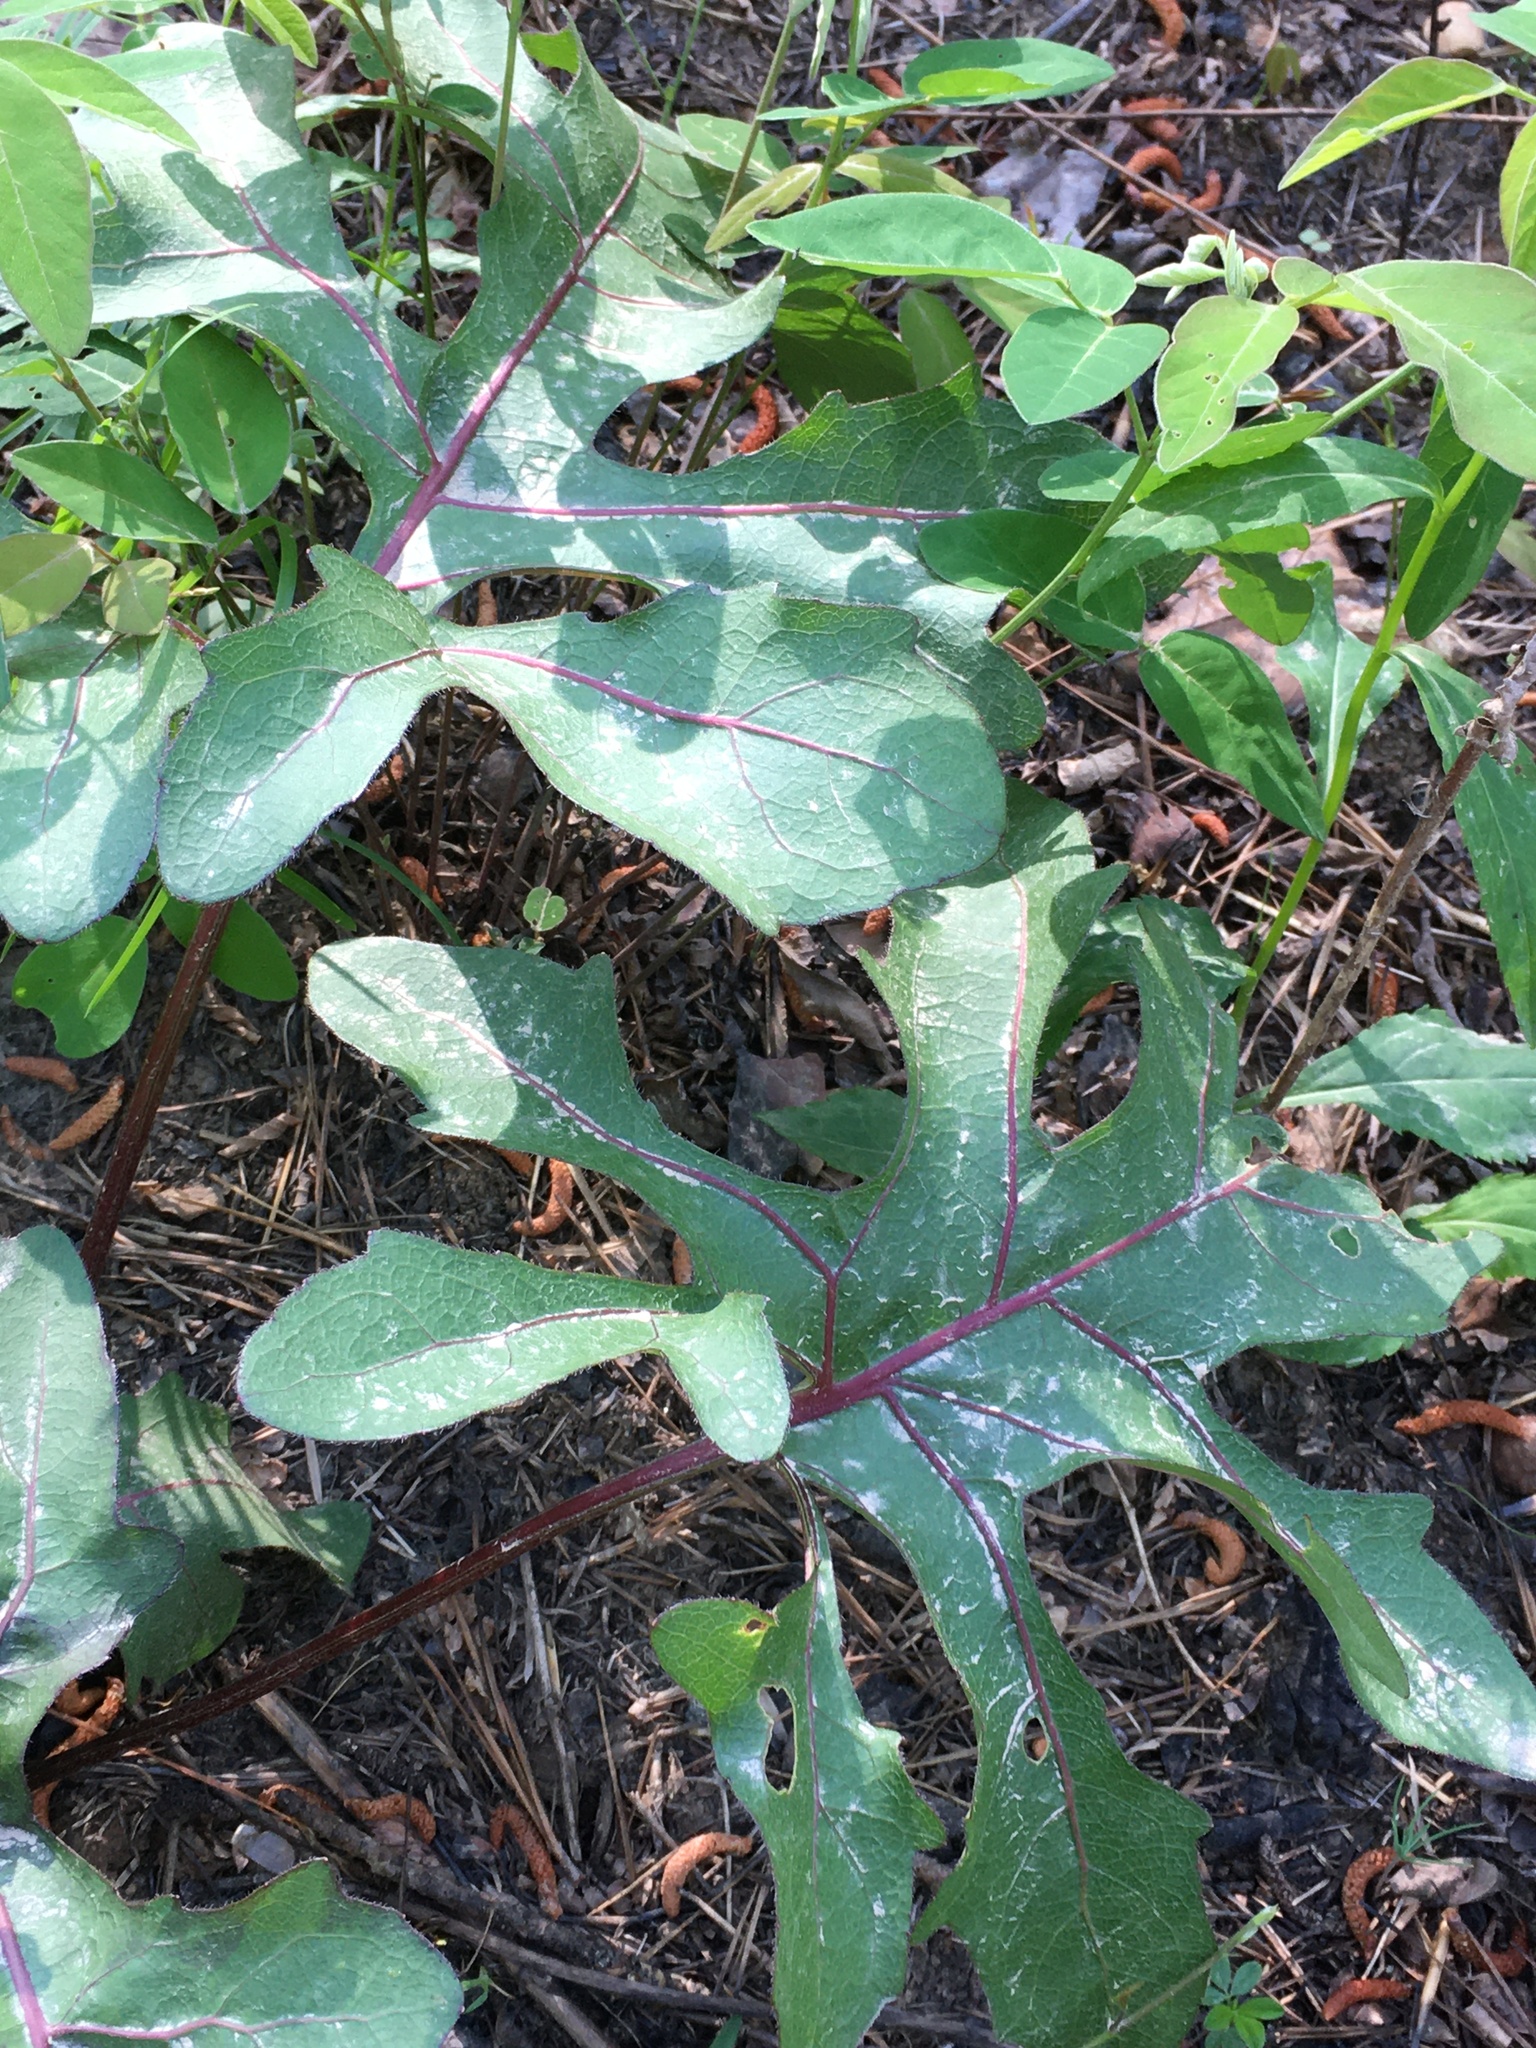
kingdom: Plantae
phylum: Tracheophyta
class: Magnoliopsida
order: Asterales
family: Asteraceae
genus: Silphium
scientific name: Silphium compositum
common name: Lesser basal-leaf rosinweed
